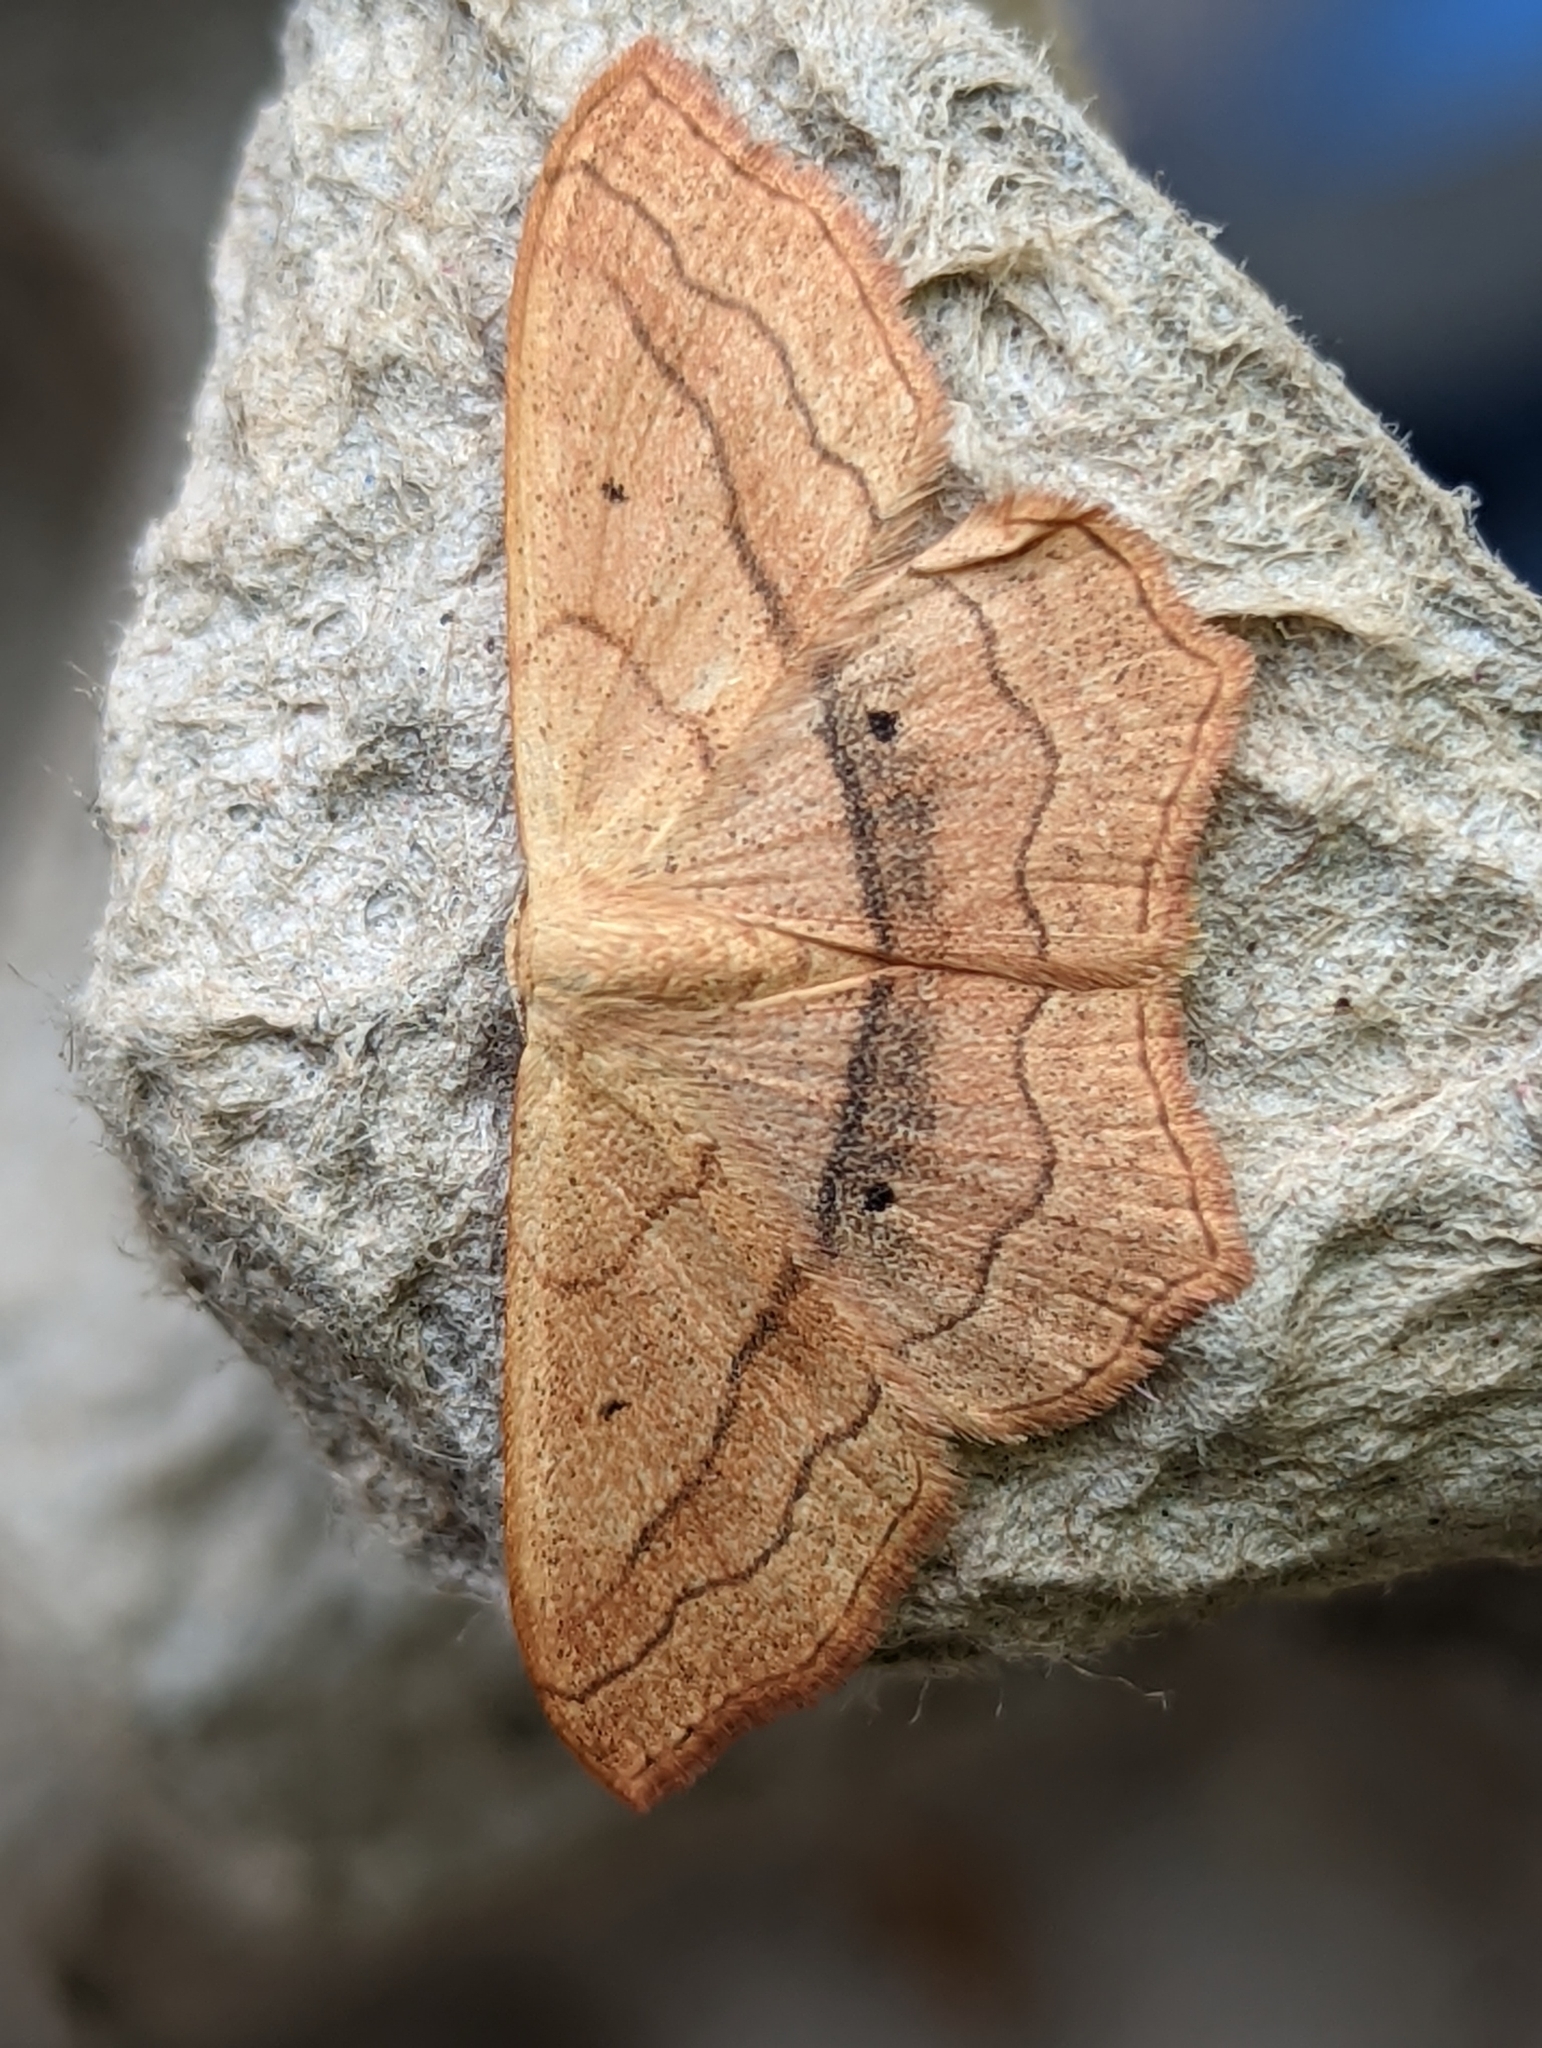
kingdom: Animalia
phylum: Arthropoda
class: Insecta
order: Lepidoptera
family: Geometridae
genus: Scopula
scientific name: Scopula imitaria
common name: Small blood-vein
